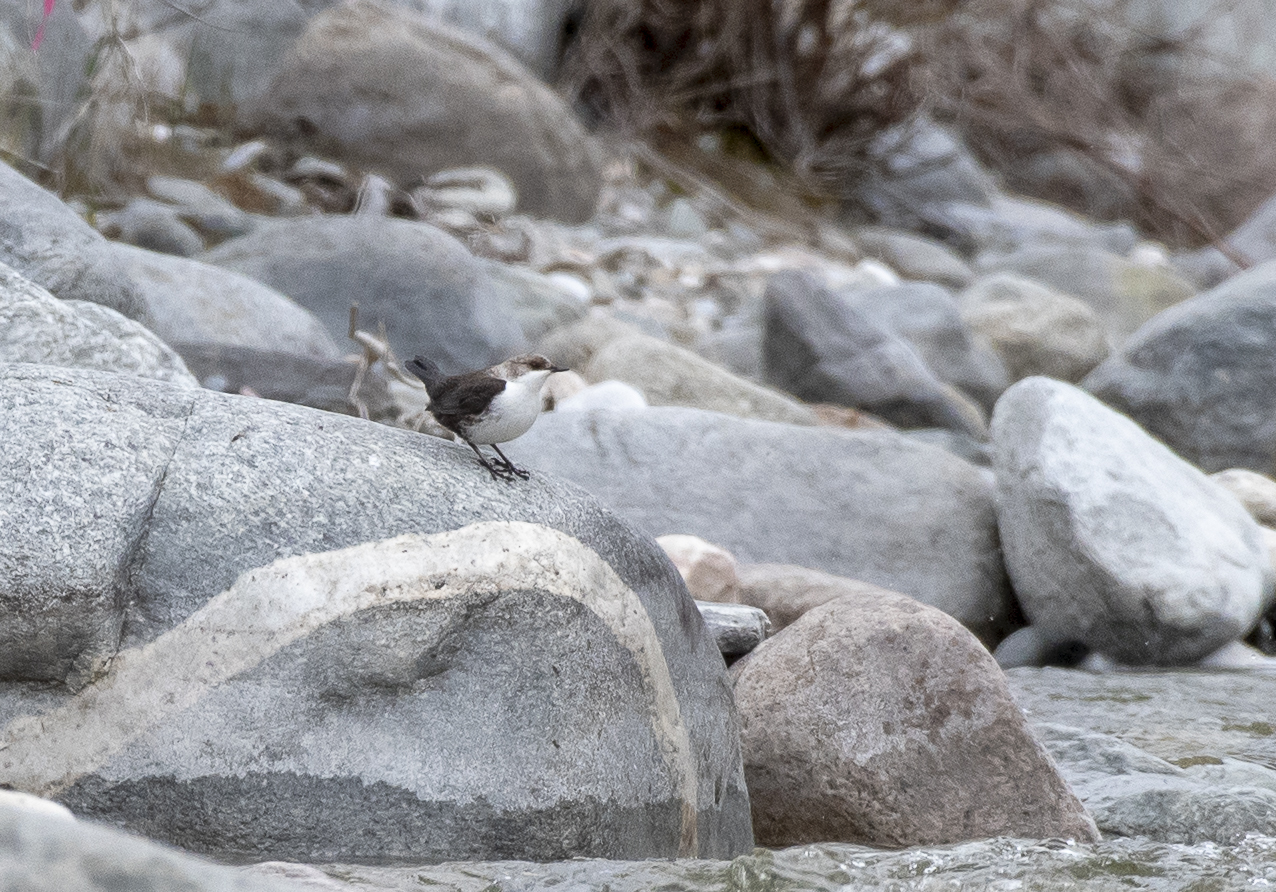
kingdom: Animalia
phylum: Chordata
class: Aves
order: Passeriformes
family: Cinclidae
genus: Cinclus
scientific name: Cinclus cinclus
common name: White-throated dipper
